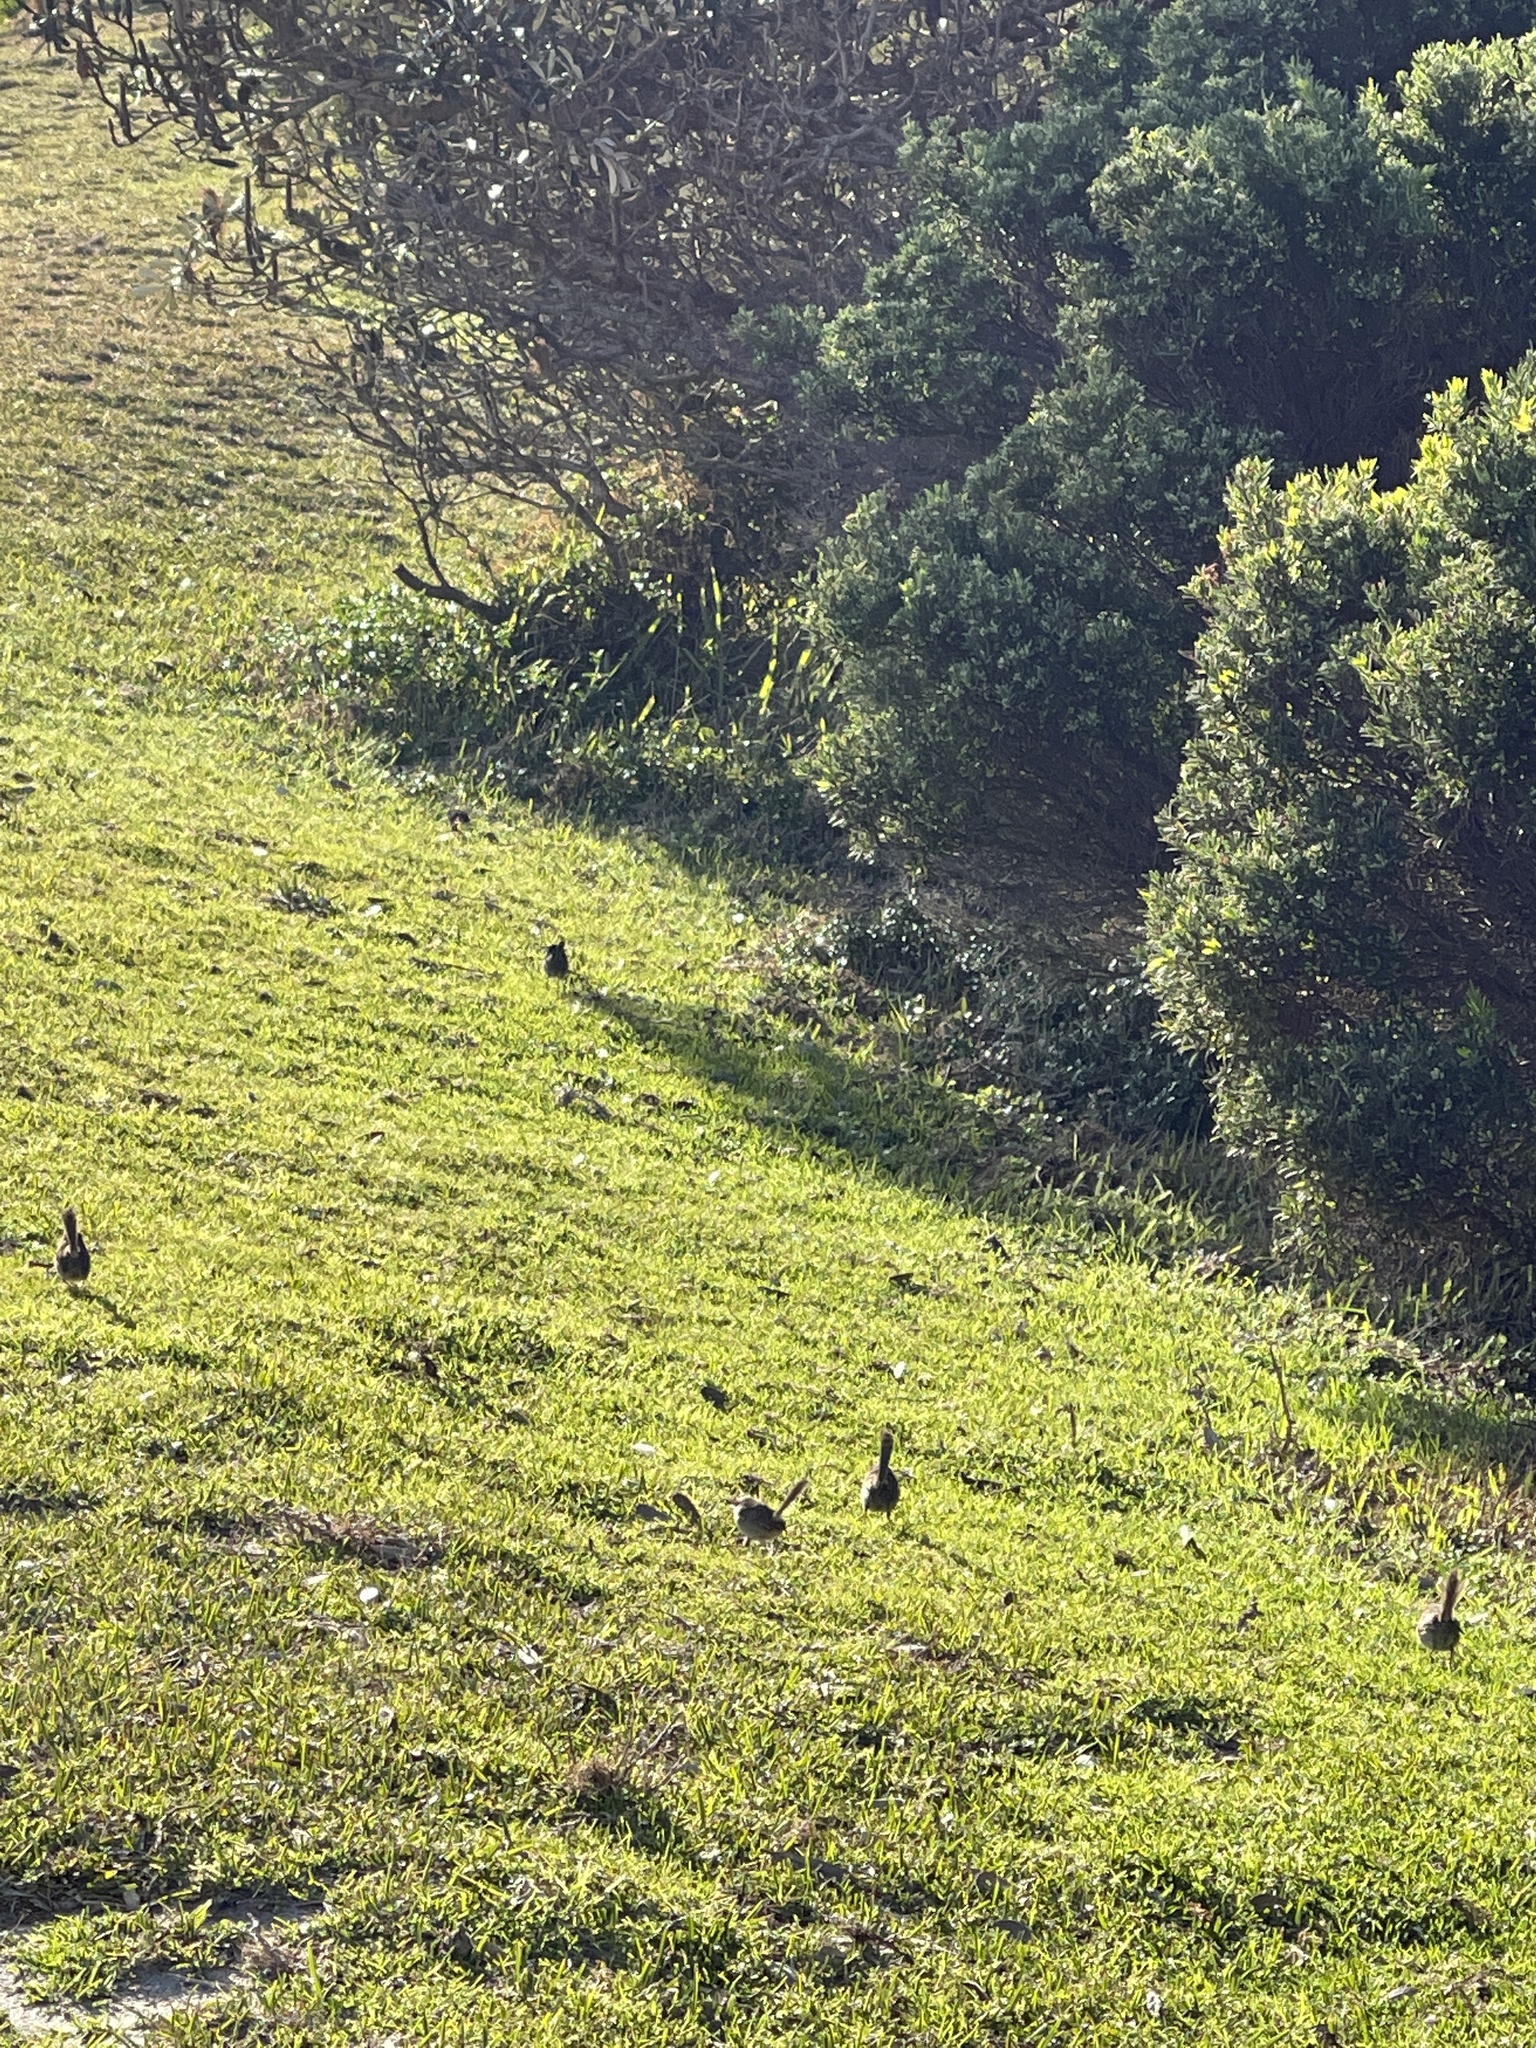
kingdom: Animalia
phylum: Chordata
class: Aves
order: Passeriformes
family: Maluridae
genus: Malurus
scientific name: Malurus cyaneus
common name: Superb fairywren
